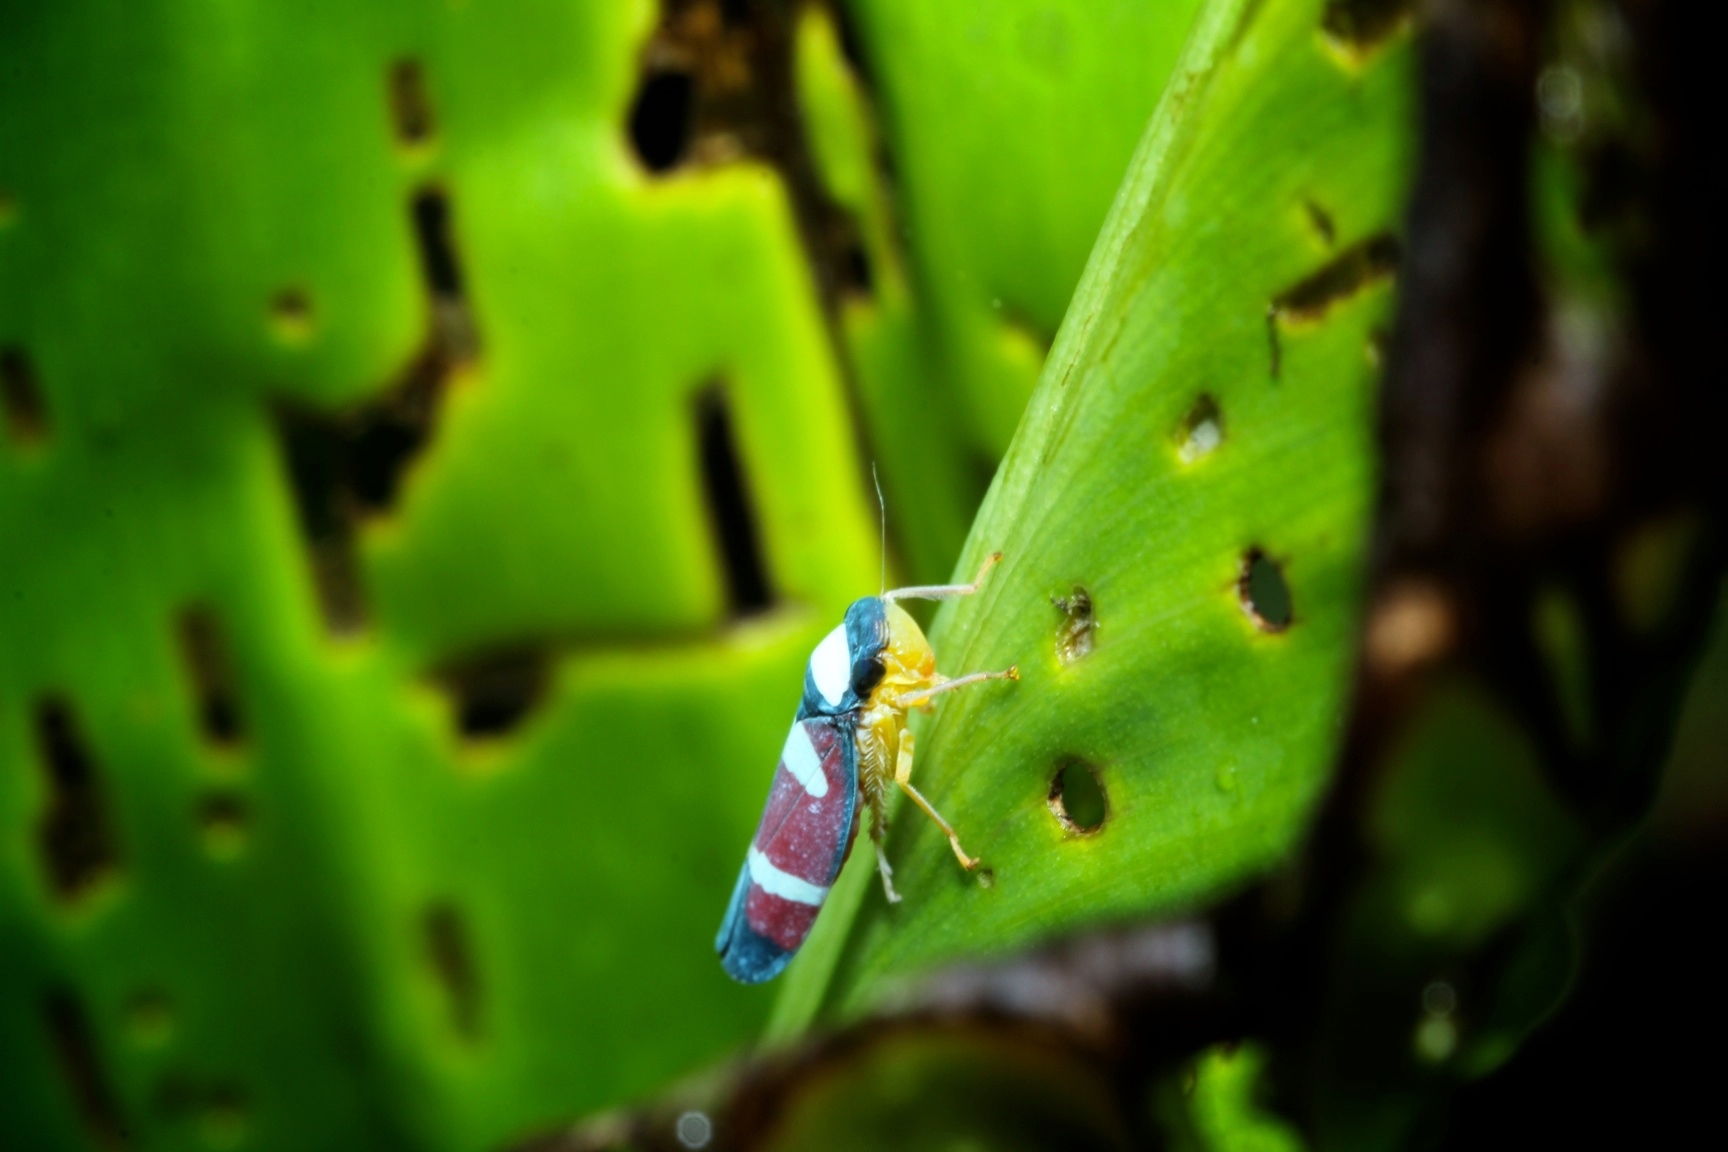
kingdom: Animalia
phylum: Arthropoda
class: Insecta
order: Hemiptera
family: Cicadellidae
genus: Erythrogonia
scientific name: Erythrogonia phoenicea
